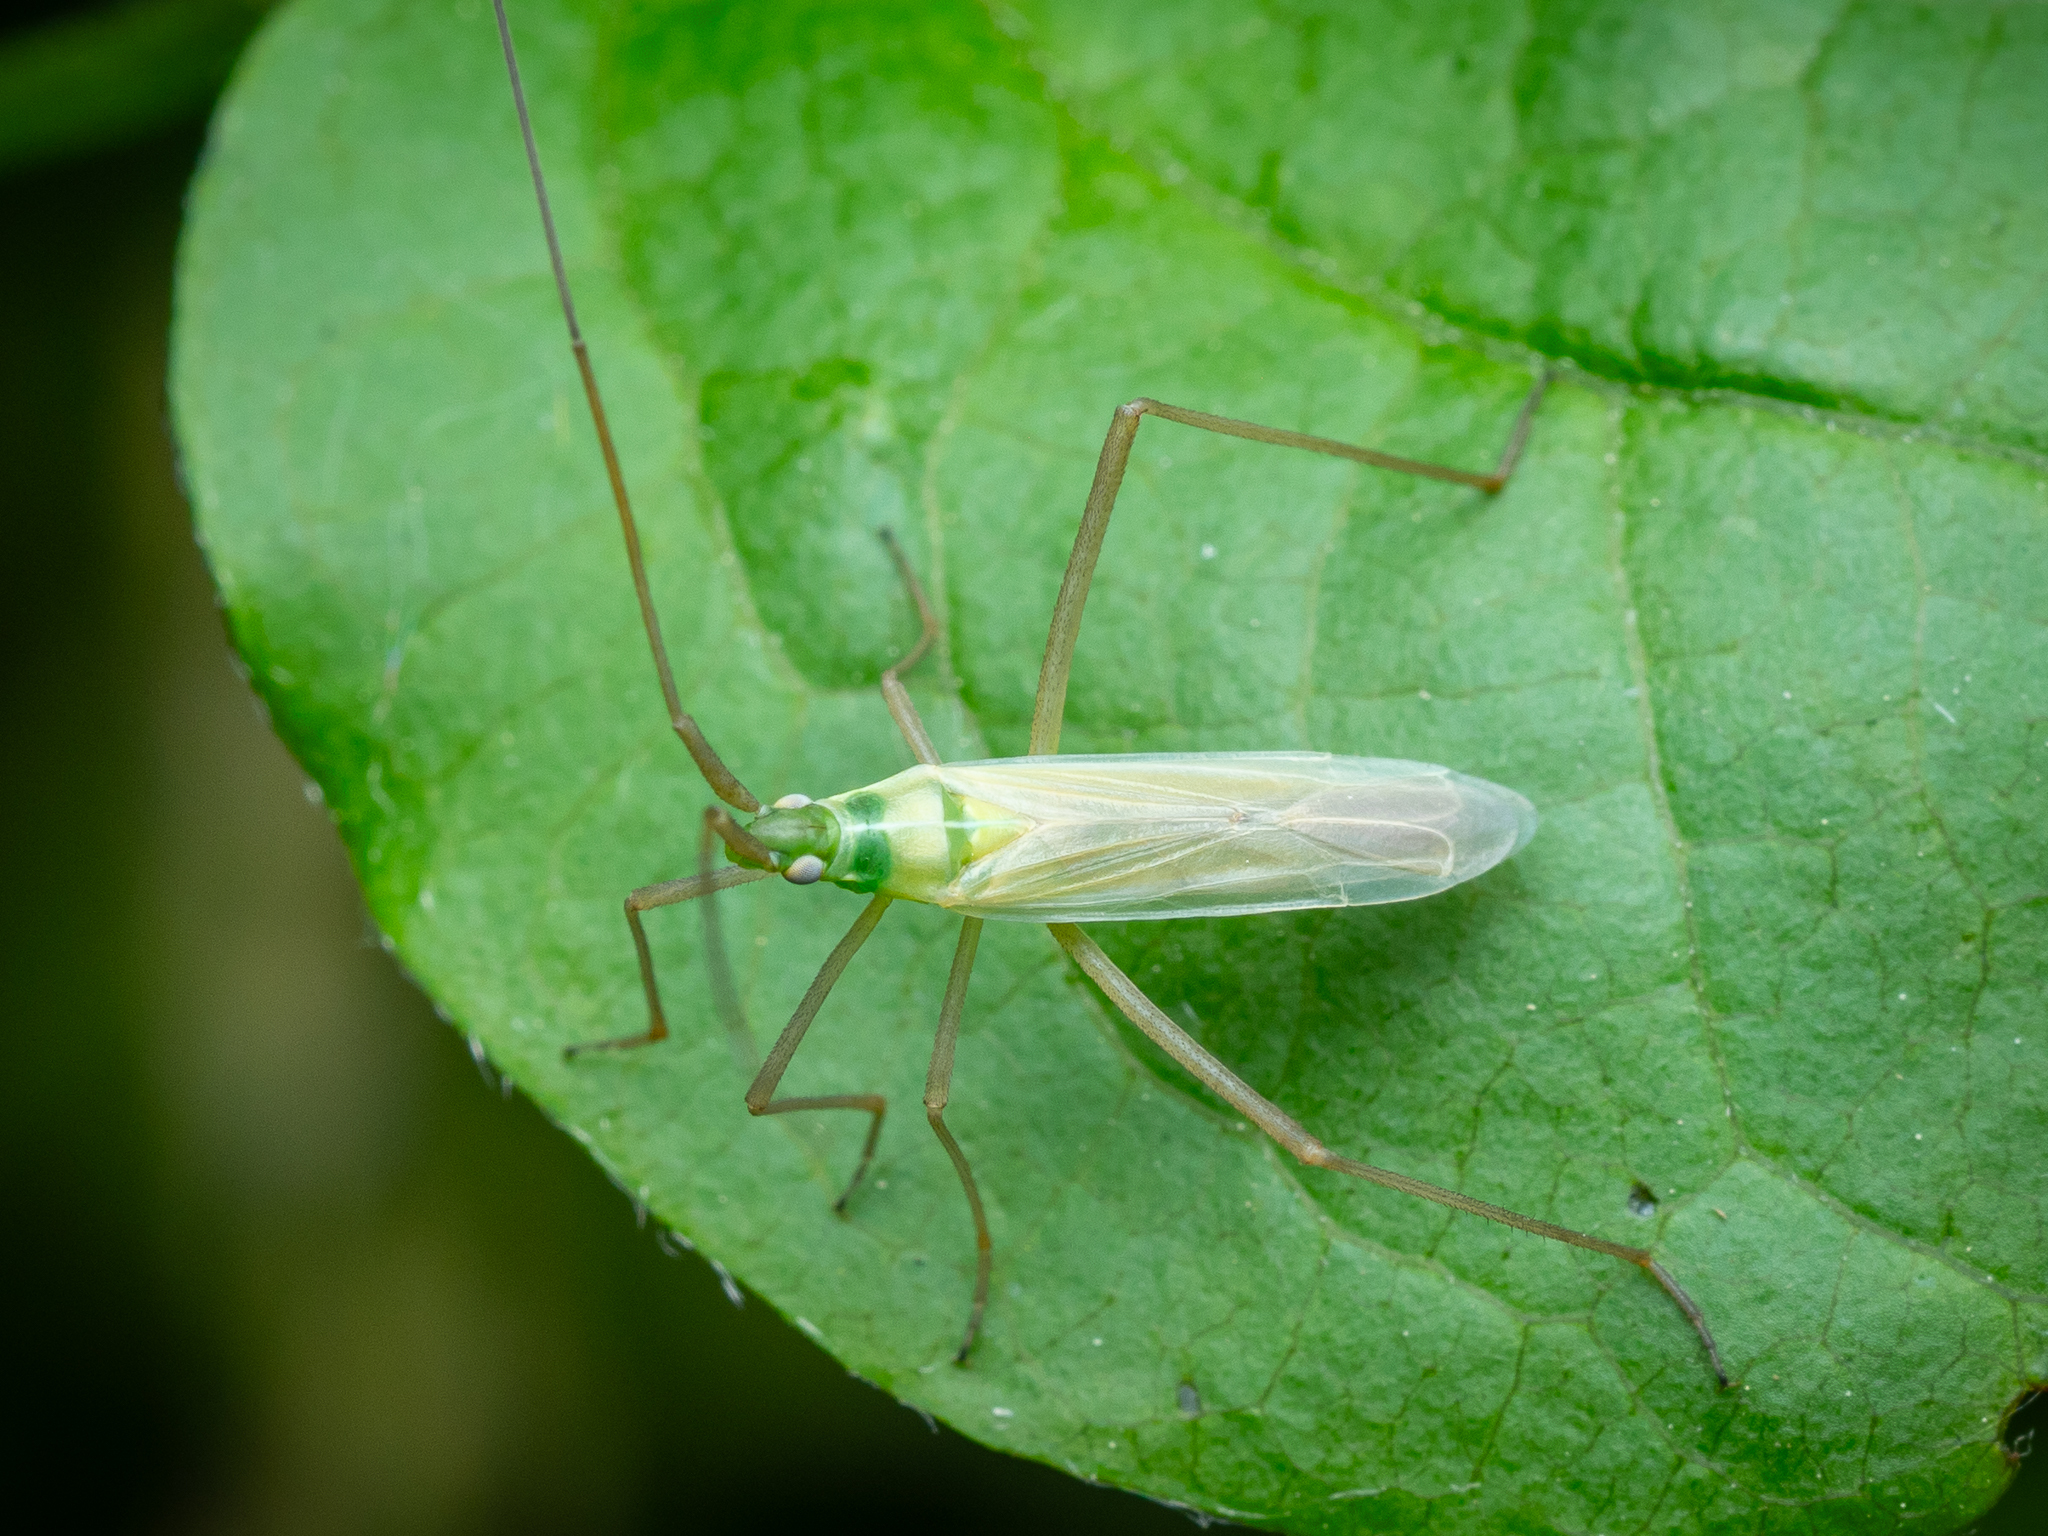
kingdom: Animalia
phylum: Arthropoda
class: Insecta
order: Hemiptera
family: Miridae
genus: Megaloceroea
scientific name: Megaloceroea recticornis
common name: Plant bug
